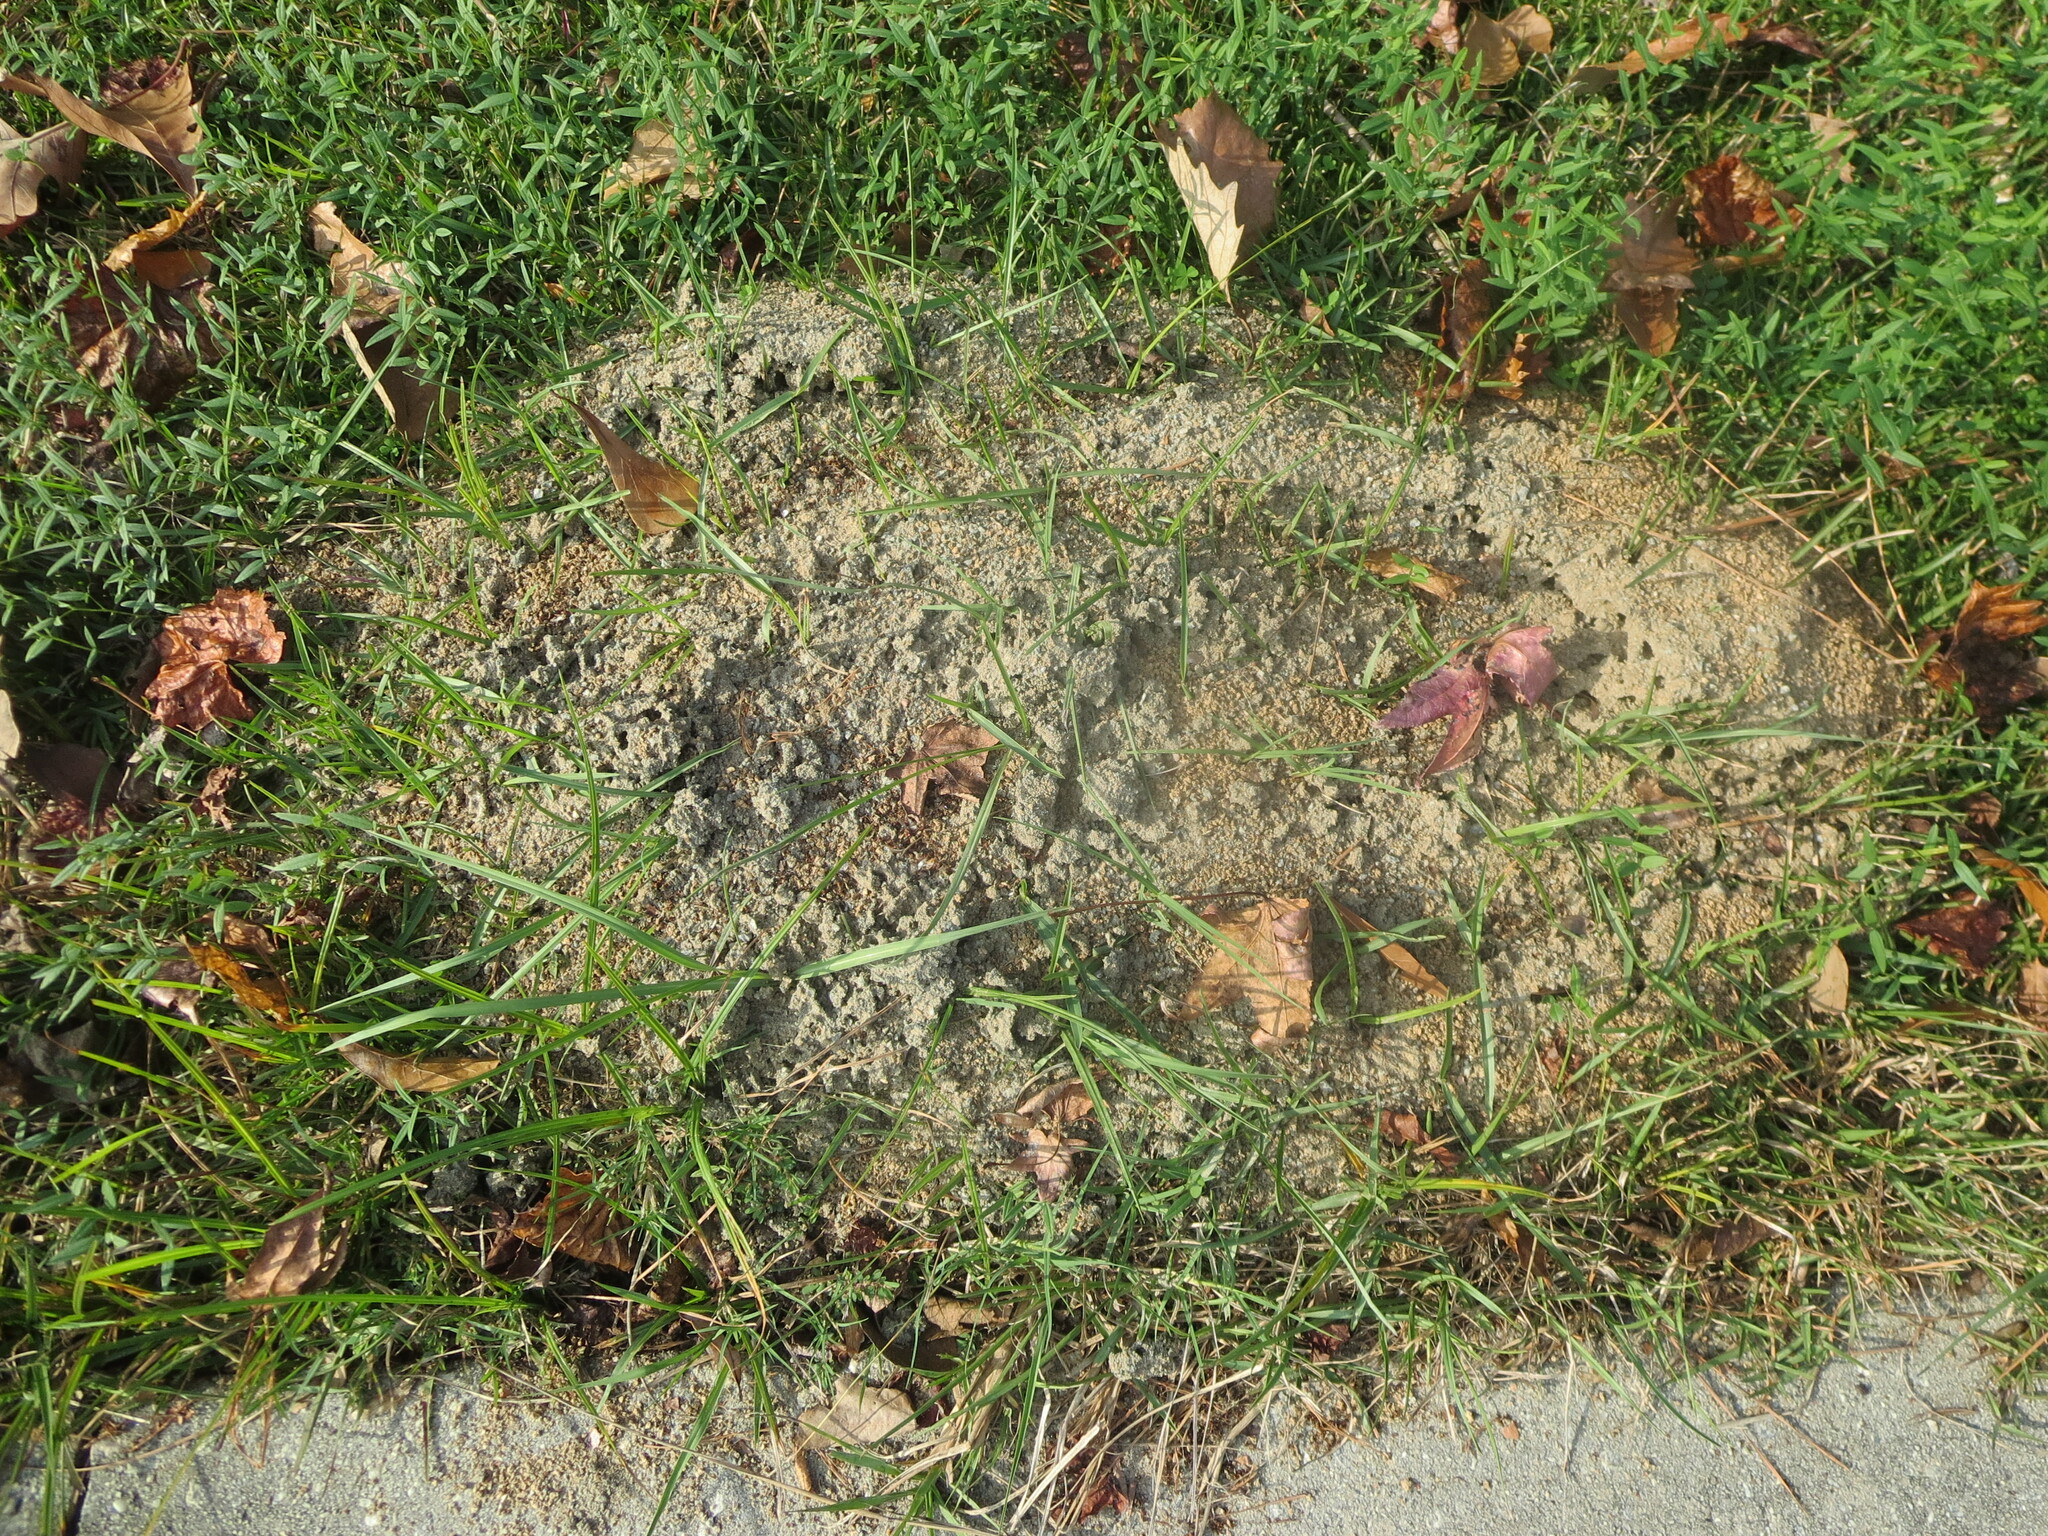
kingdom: Animalia
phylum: Arthropoda
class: Insecta
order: Hymenoptera
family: Formicidae
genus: Solenopsis
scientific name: Solenopsis invicta
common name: Red imported fire ant
